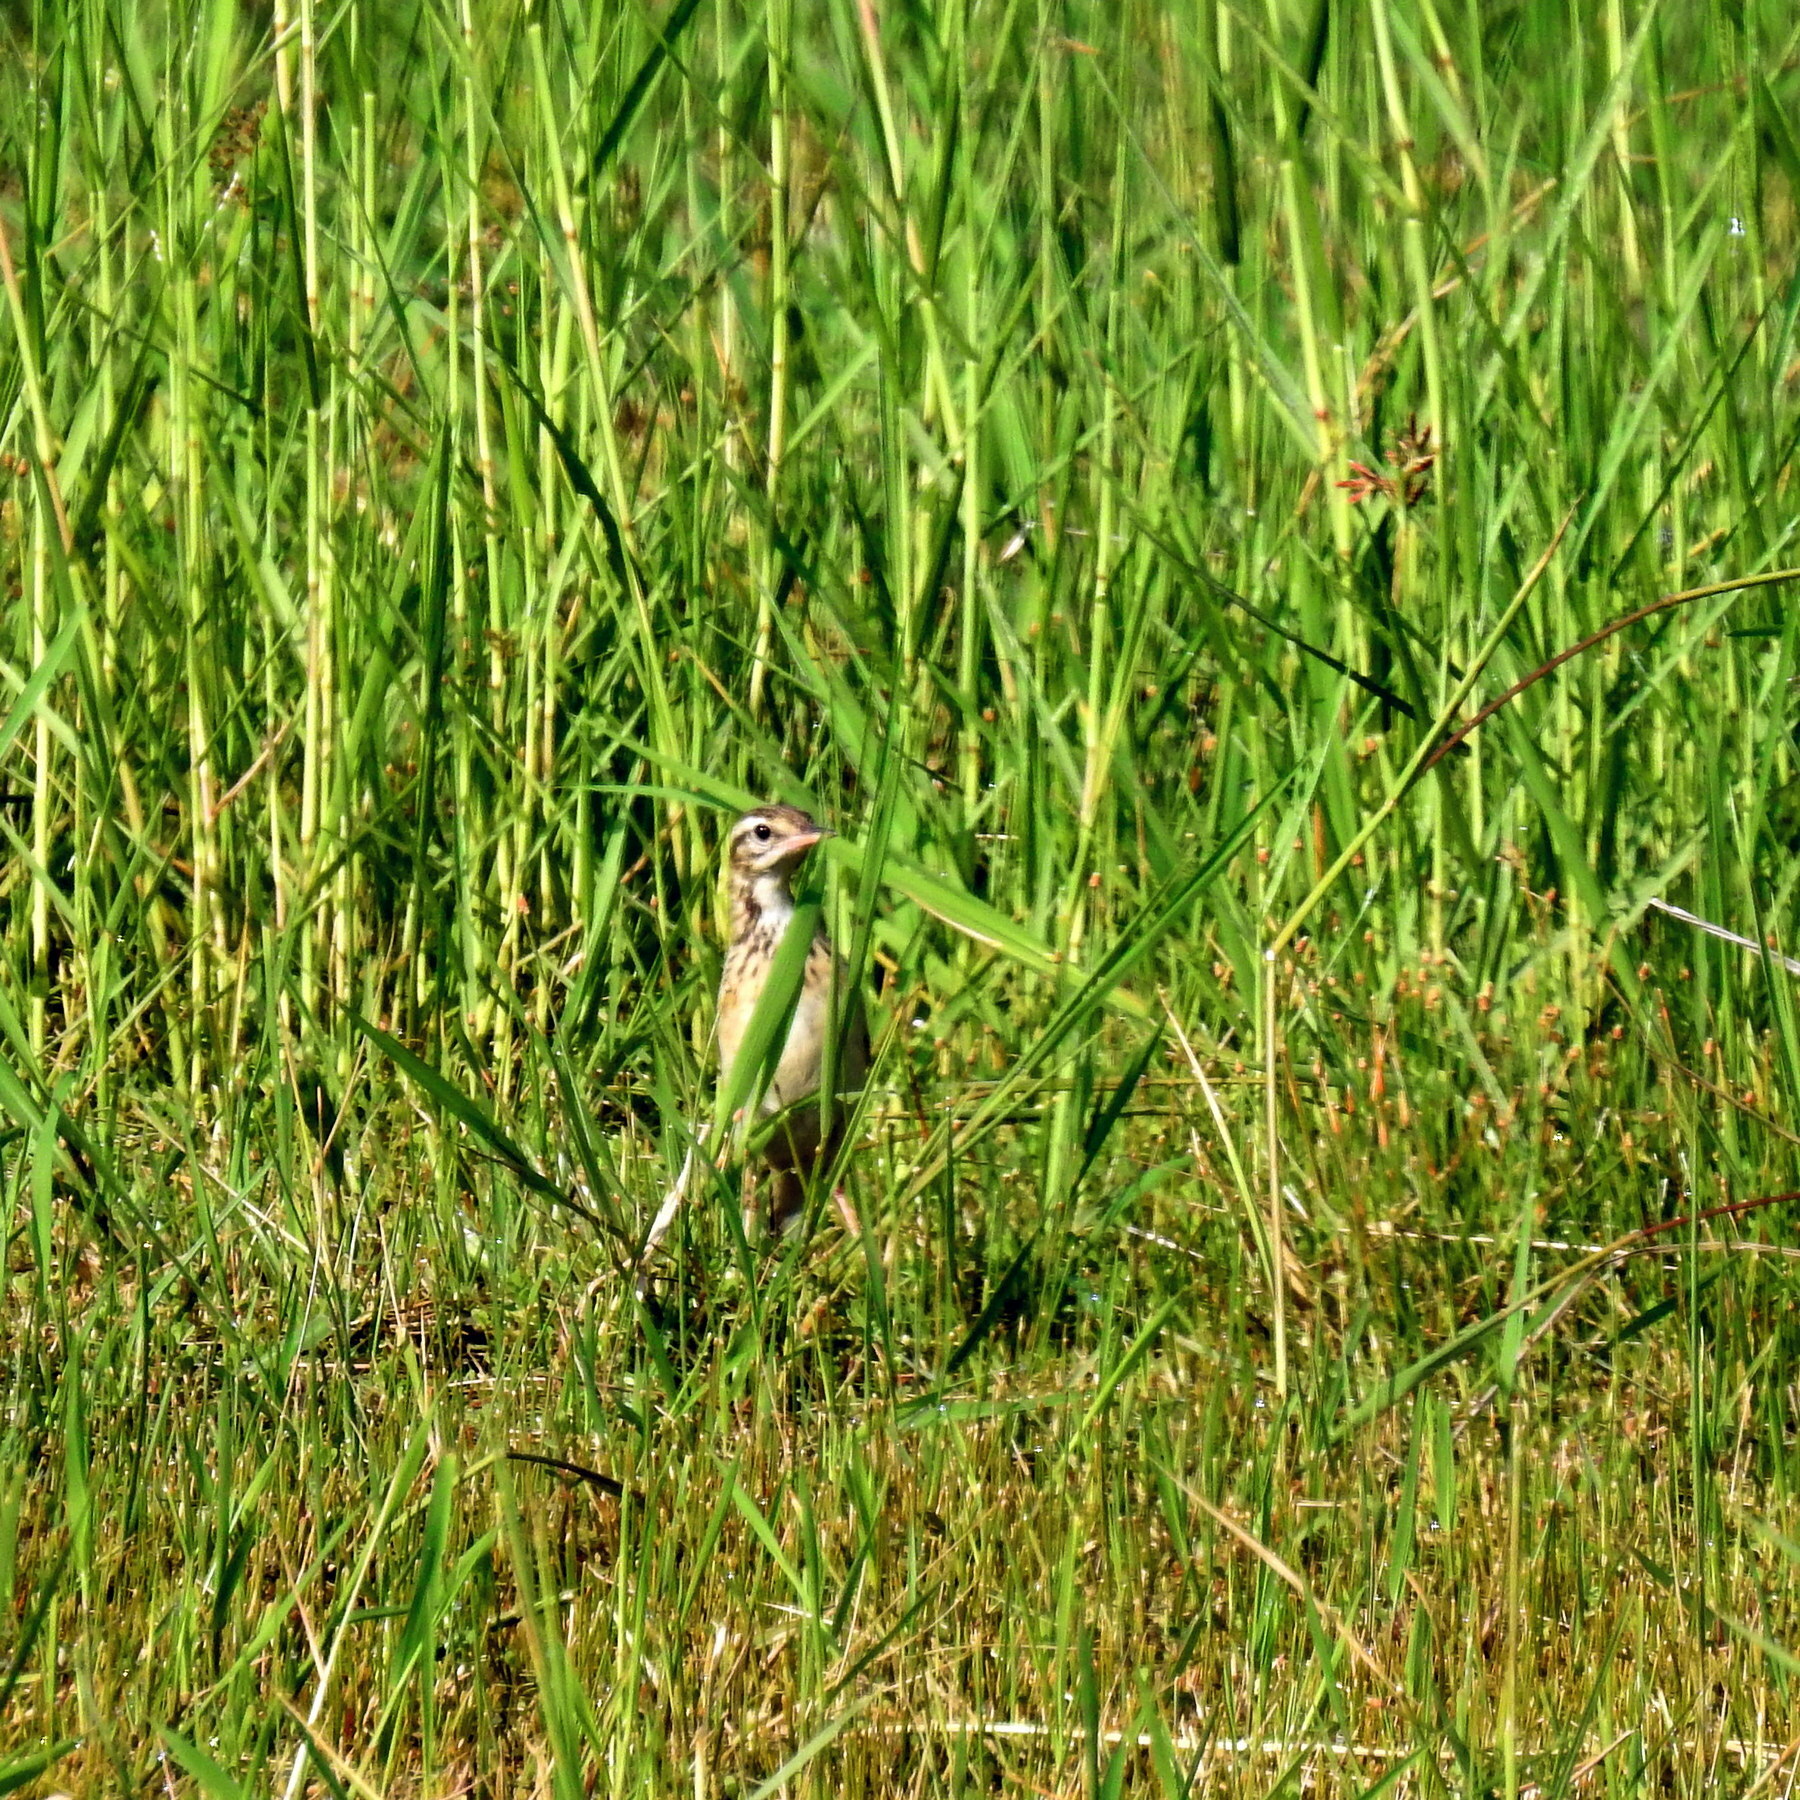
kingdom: Animalia
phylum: Chordata
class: Aves
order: Passeriformes
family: Motacillidae
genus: Anthus
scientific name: Anthus rufulus
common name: Paddyfield pipit
